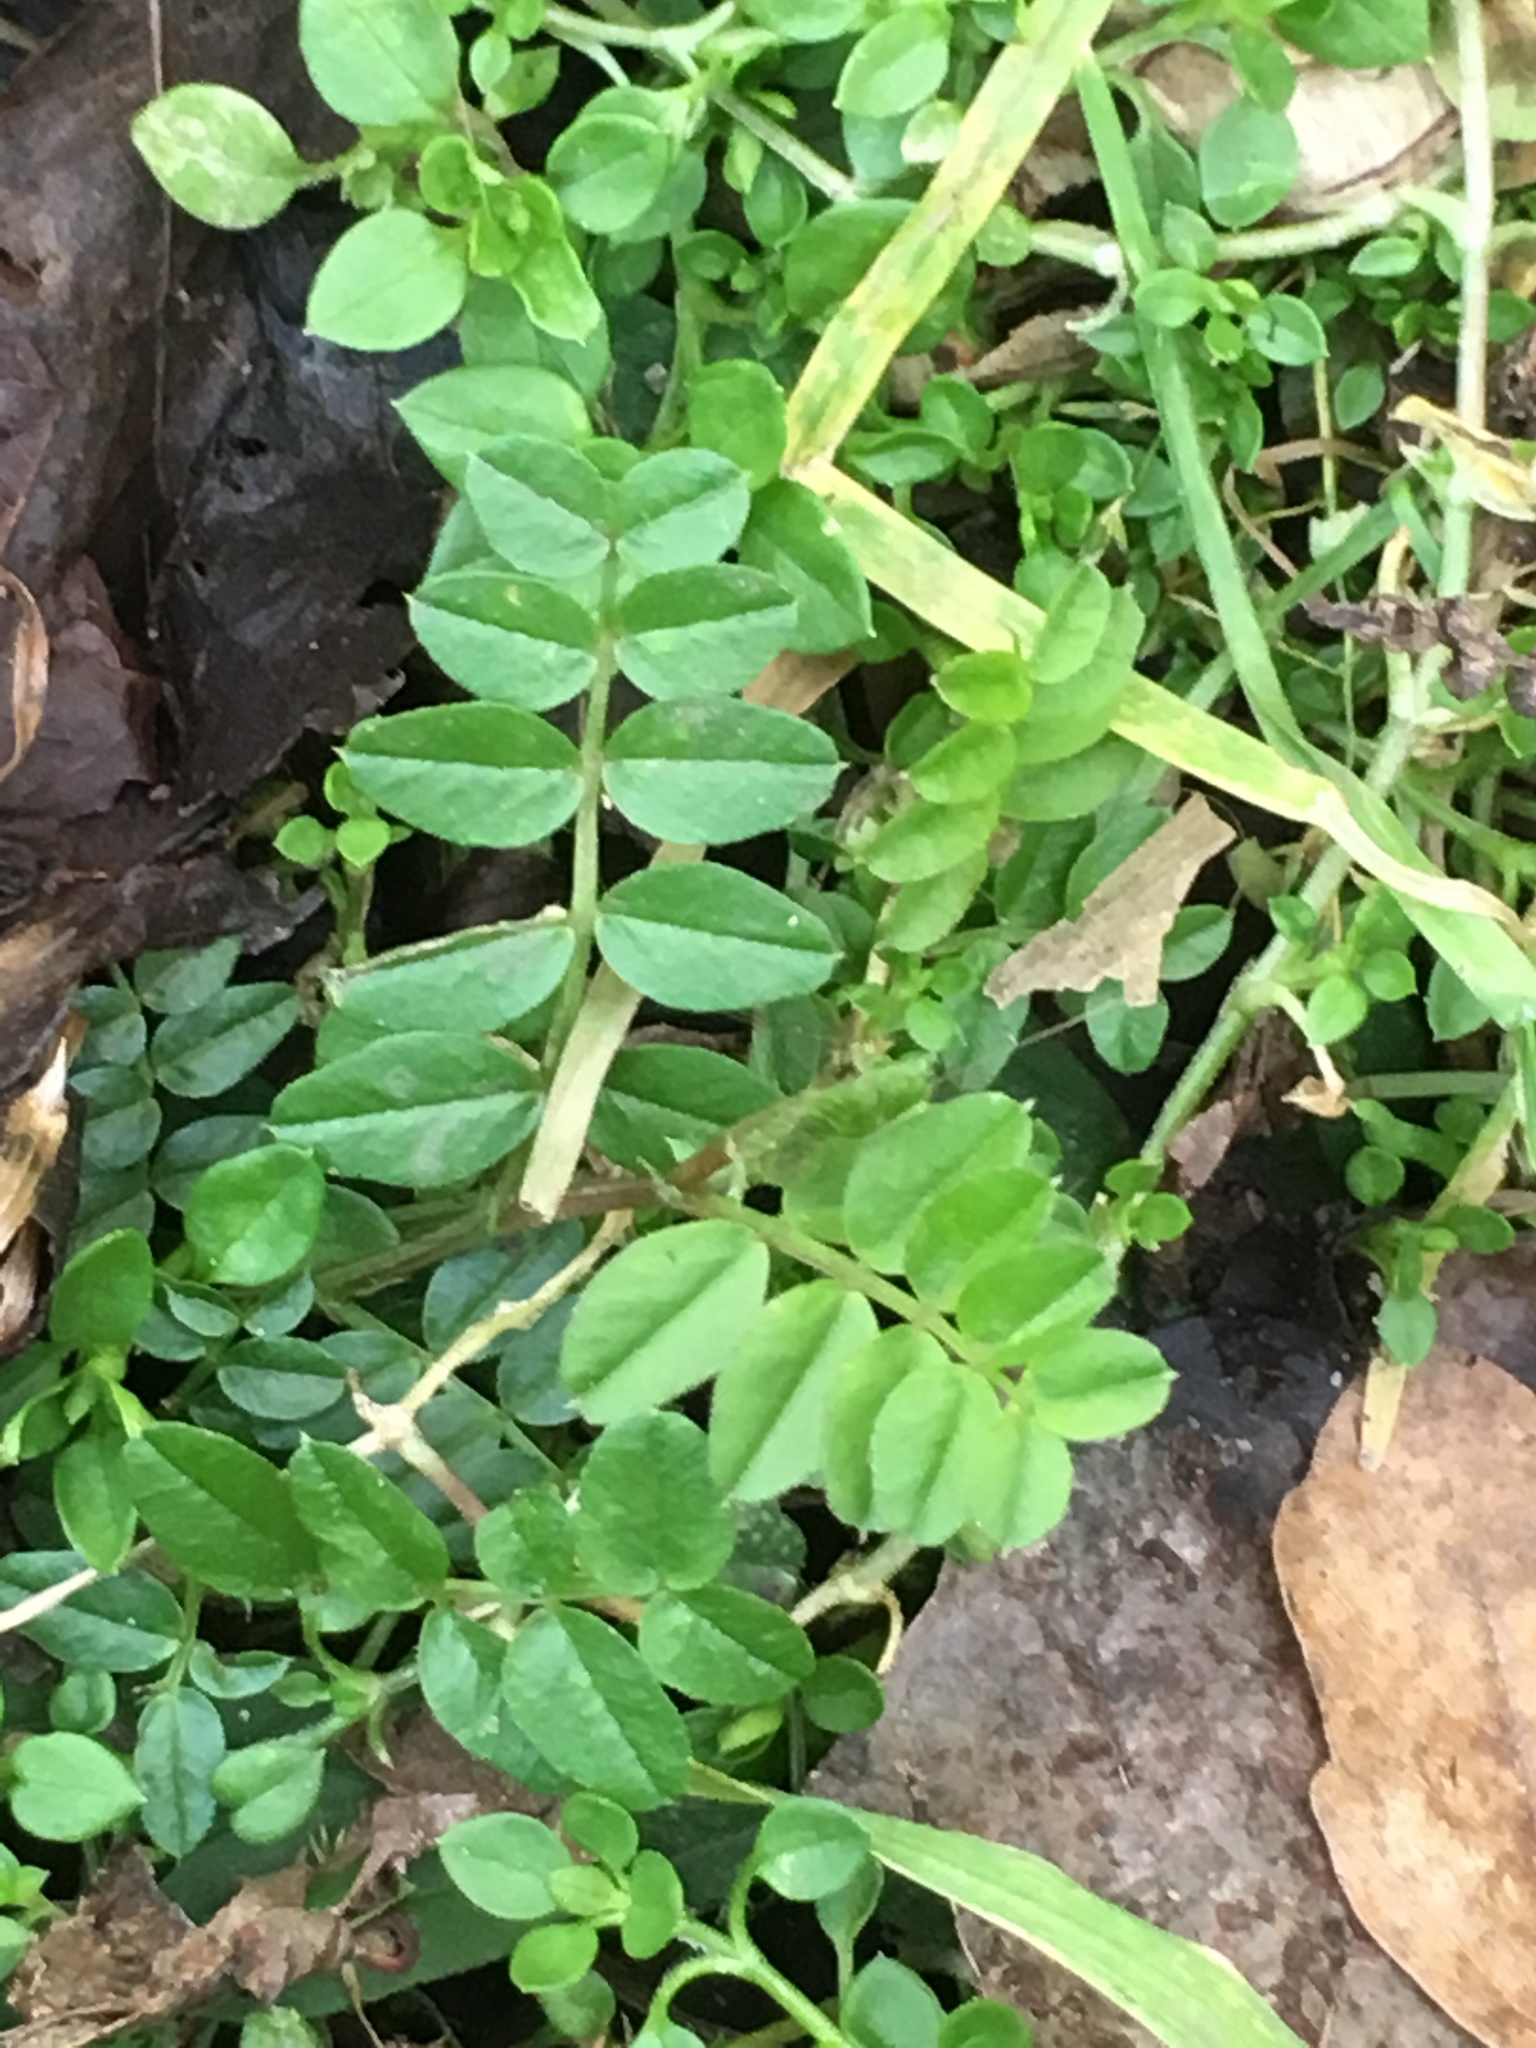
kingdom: Plantae
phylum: Tracheophyta
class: Magnoliopsida
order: Fabales
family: Fabaceae
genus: Vicia
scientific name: Vicia sepium
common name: Bush vetch
